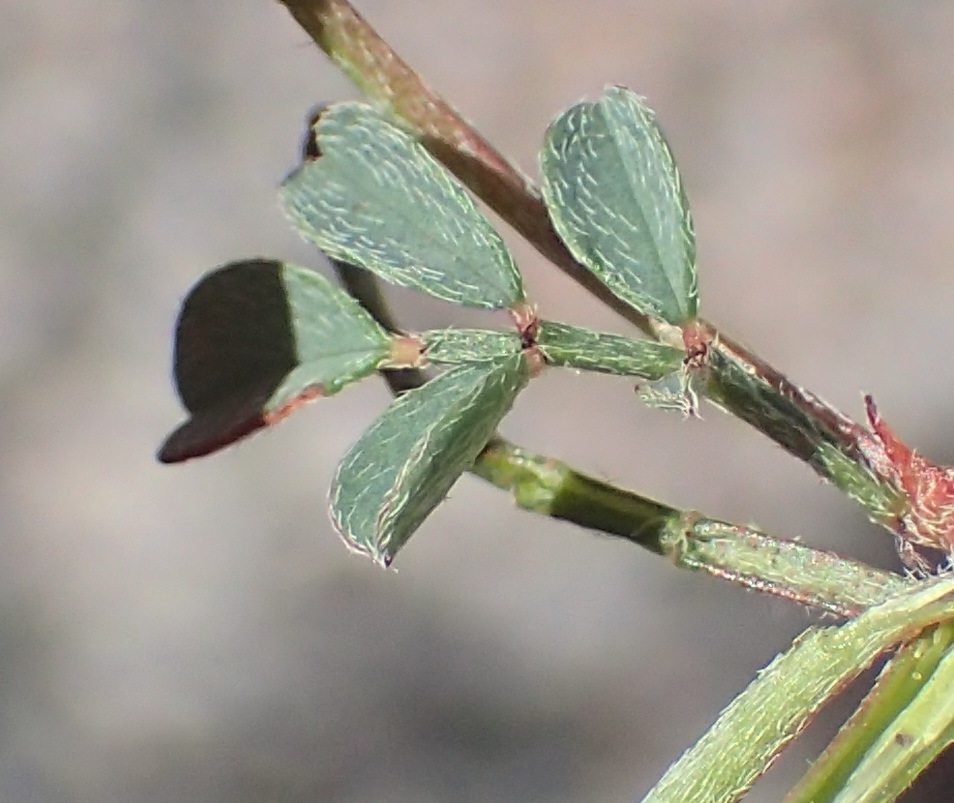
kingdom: Plantae
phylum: Tracheophyta
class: Magnoliopsida
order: Fabales
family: Fabaceae
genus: Indigofera
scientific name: Indigofera declinata
